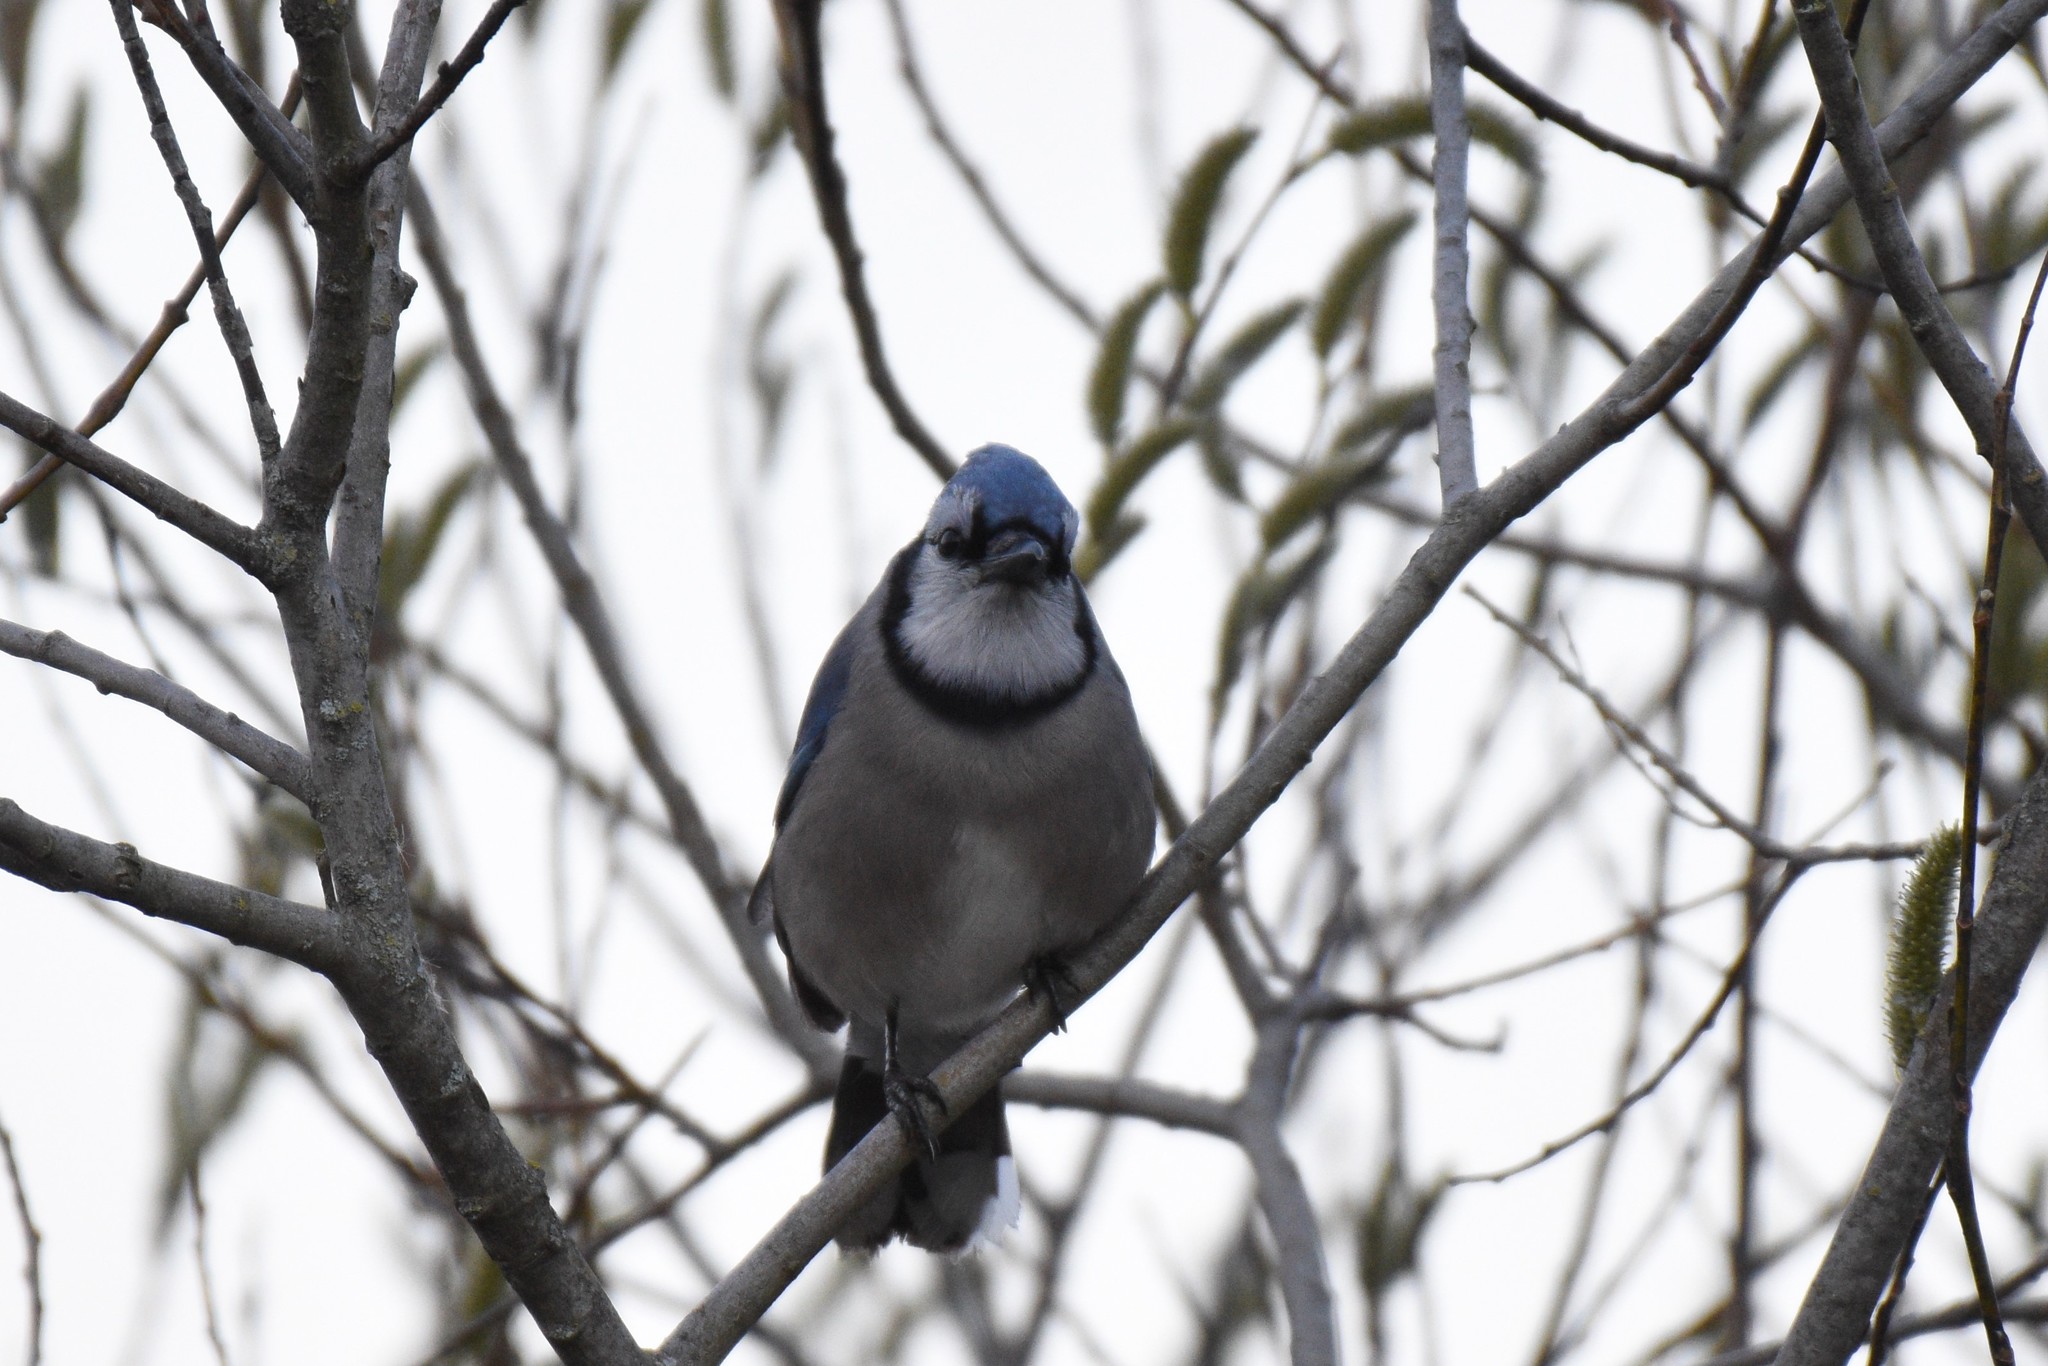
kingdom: Animalia
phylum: Chordata
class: Aves
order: Passeriformes
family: Corvidae
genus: Cyanocitta
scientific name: Cyanocitta cristata
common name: Blue jay
